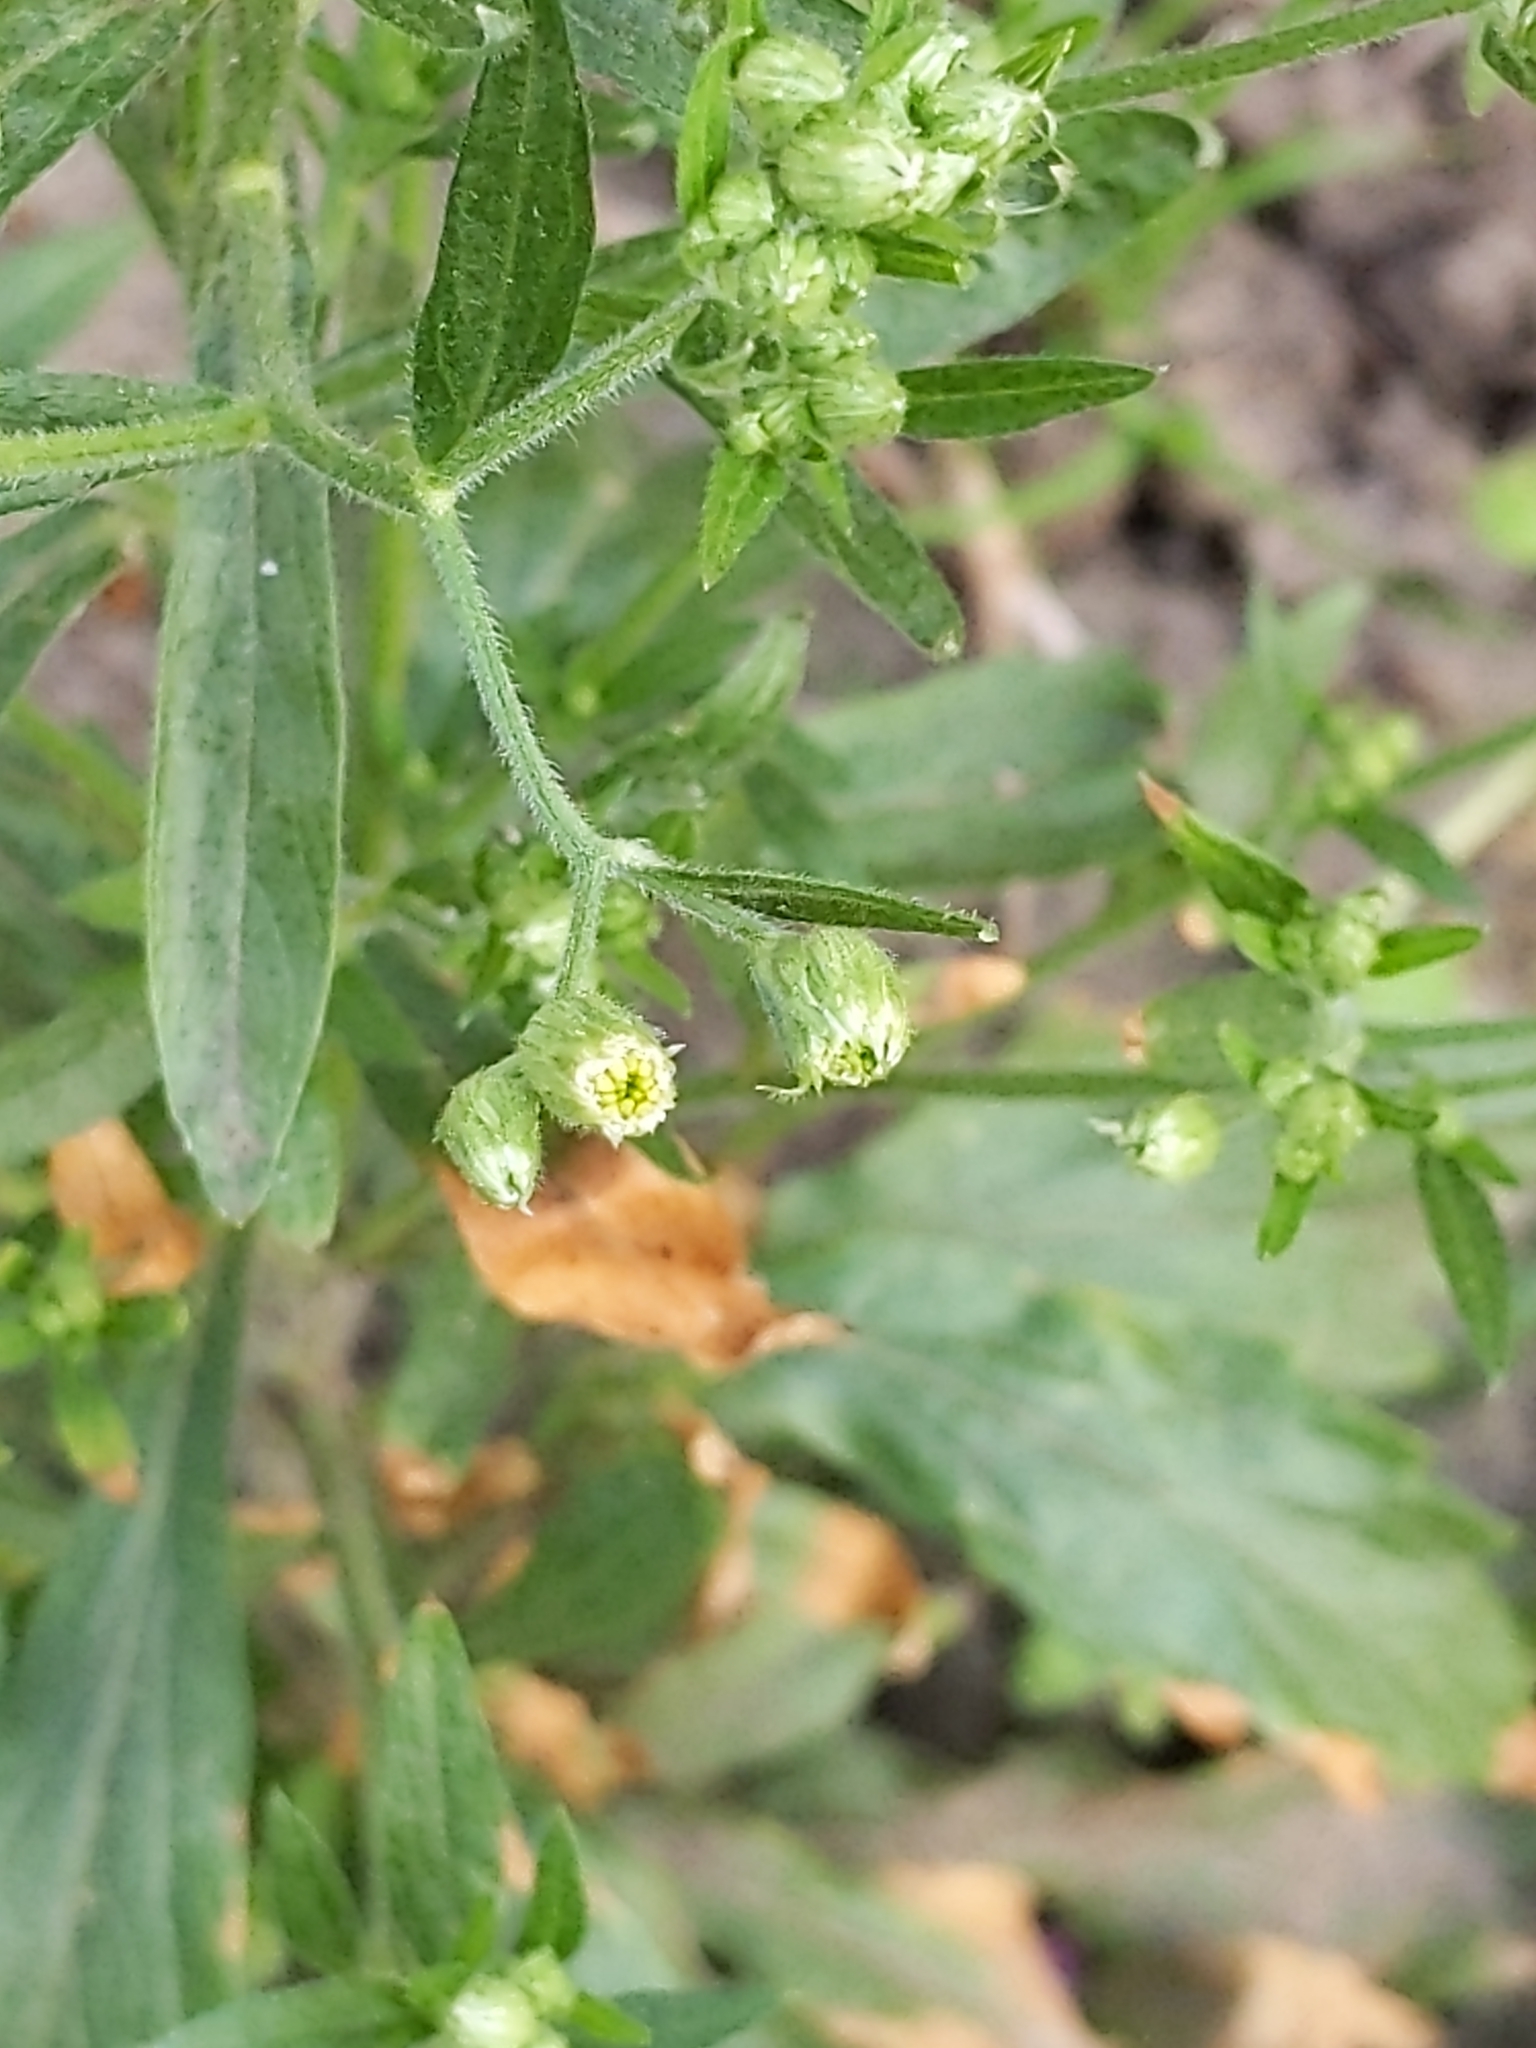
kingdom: Plantae
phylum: Tracheophyta
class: Magnoliopsida
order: Asterales
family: Asteraceae
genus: Erigeron
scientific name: Erigeron sumatrensis
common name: Daisy
